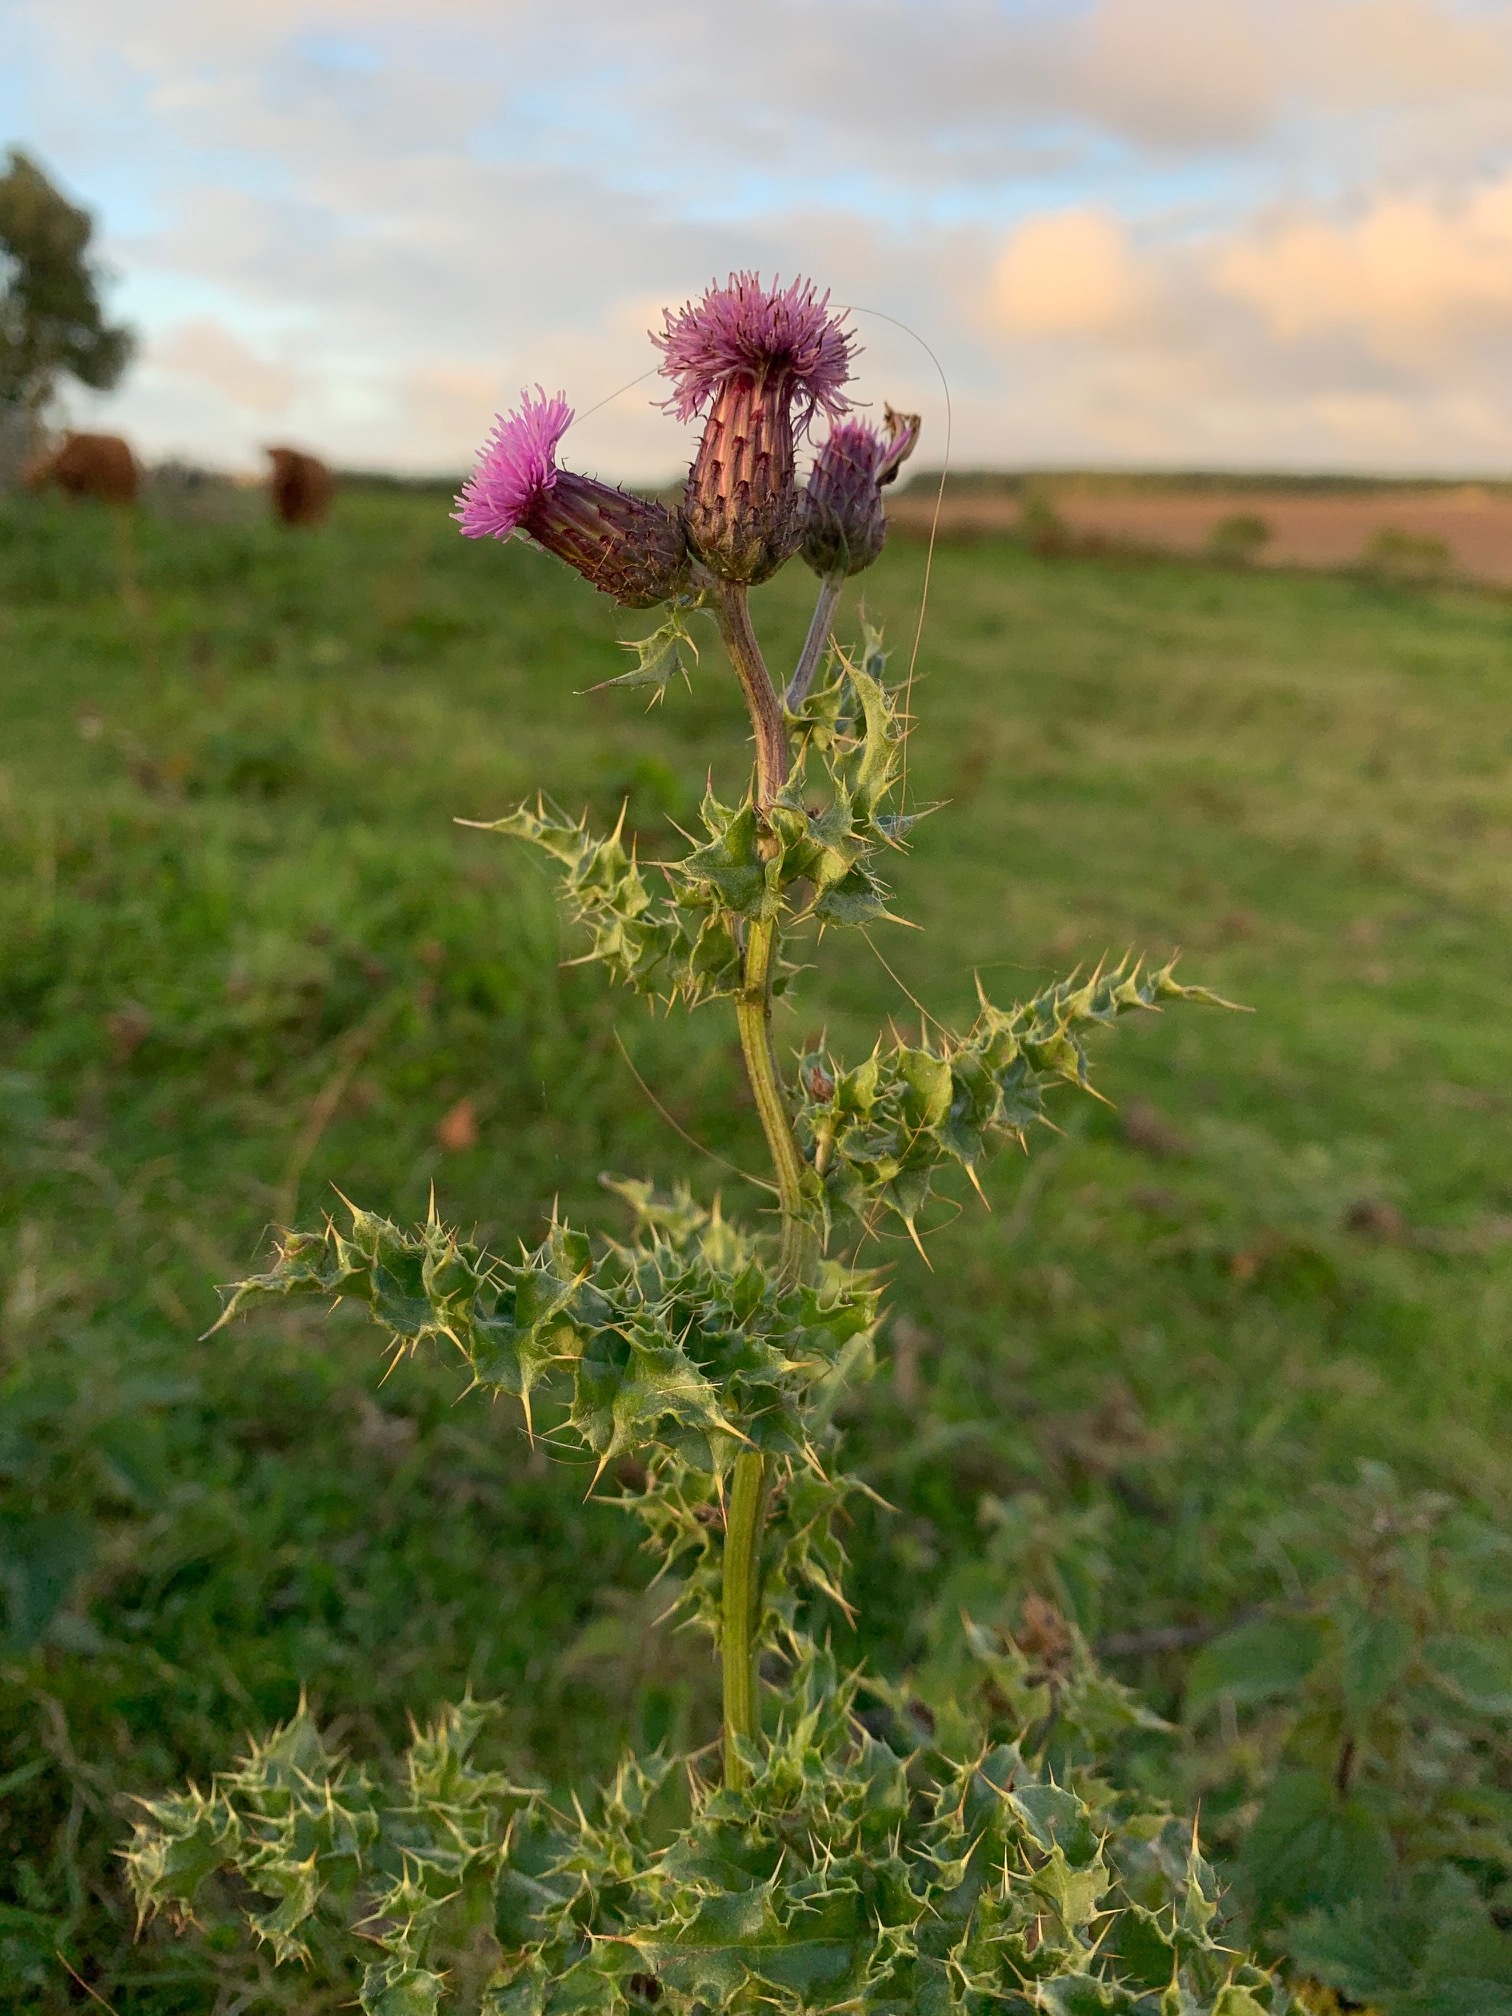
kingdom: Plantae
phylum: Tracheophyta
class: Magnoliopsida
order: Asterales
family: Asteraceae
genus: Cirsium
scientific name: Cirsium arvense
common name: Creeping thistle
